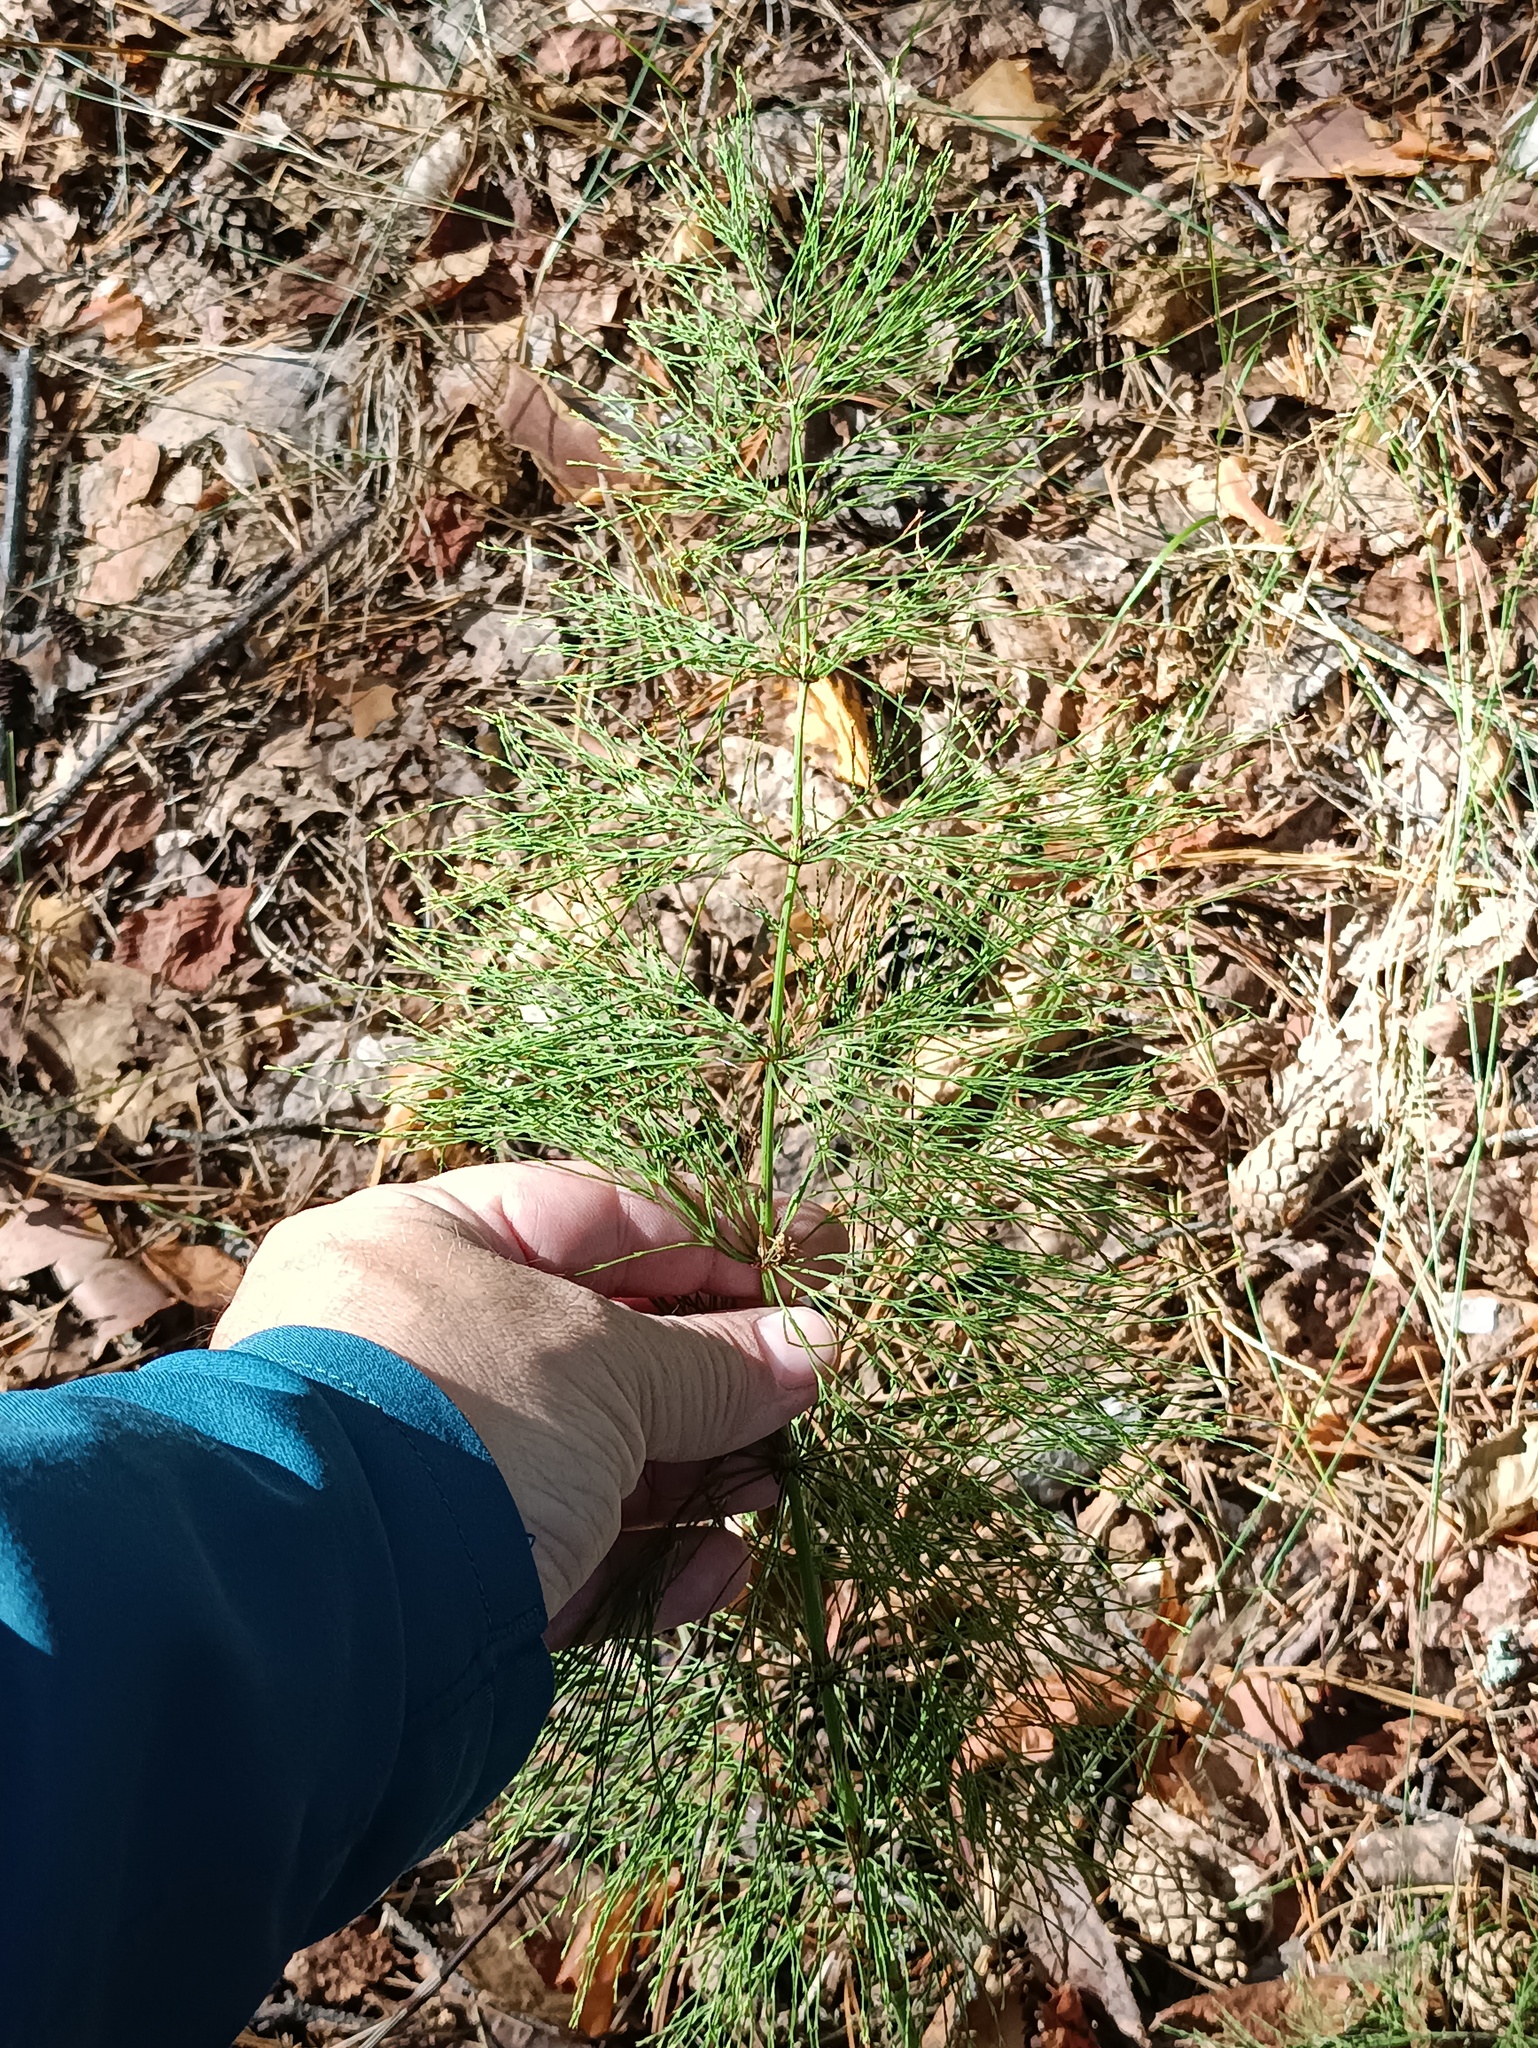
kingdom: Plantae
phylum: Tracheophyta
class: Polypodiopsida
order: Equisetales
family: Equisetaceae
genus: Equisetum
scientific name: Equisetum sylvaticum
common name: Wood horsetail
